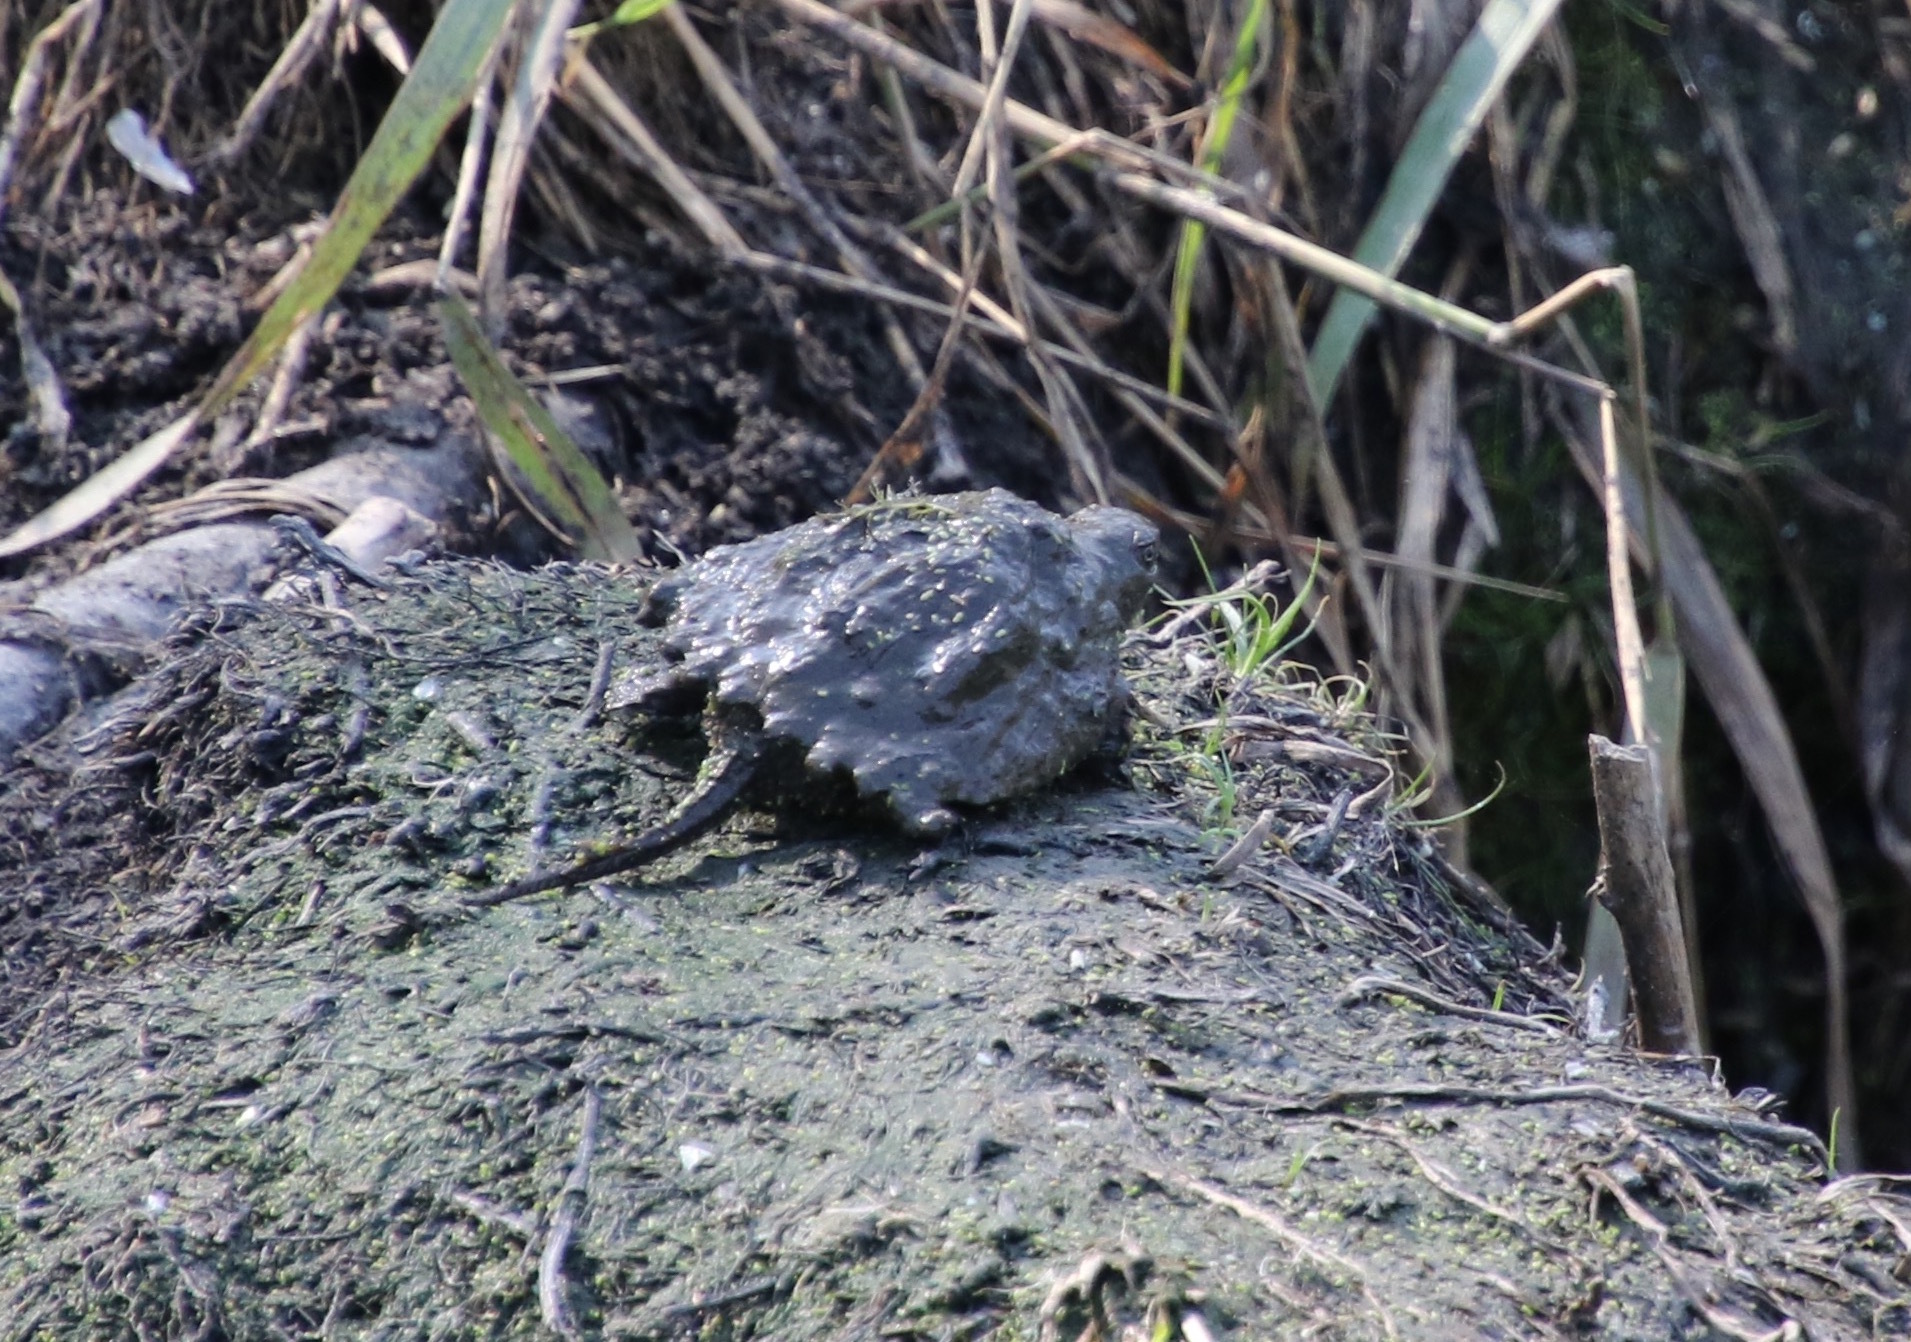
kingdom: Animalia
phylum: Chordata
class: Testudines
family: Chelydridae
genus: Chelydra
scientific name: Chelydra serpentina
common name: Common snapping turtle
